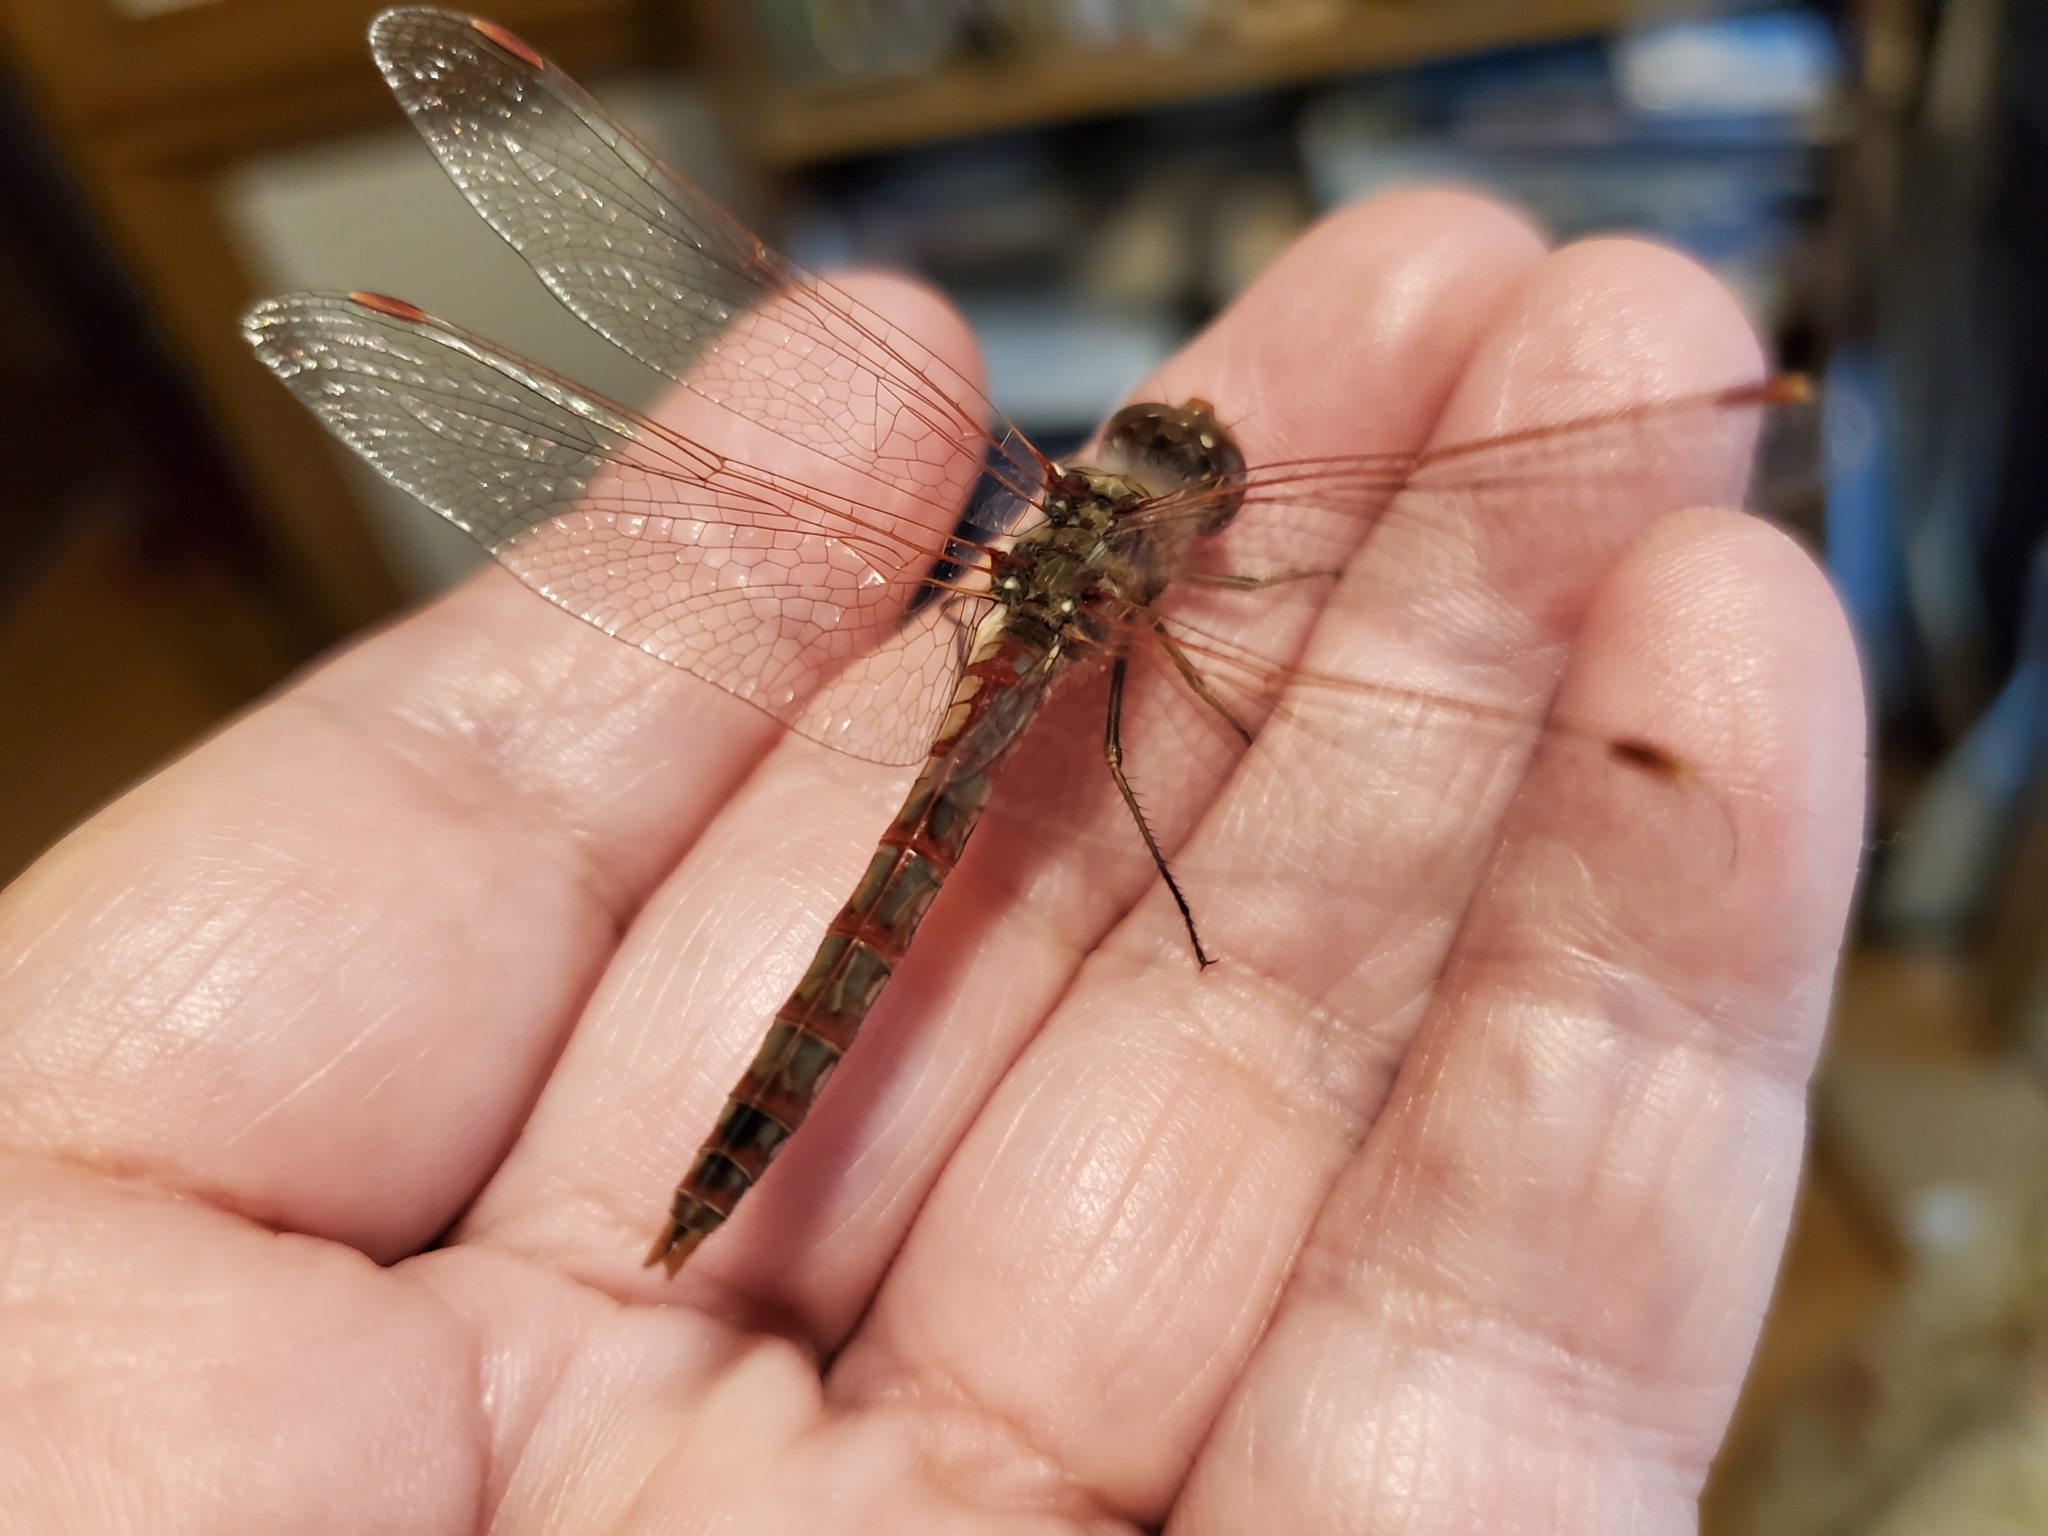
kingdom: Animalia
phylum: Arthropoda
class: Insecta
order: Odonata
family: Libellulidae
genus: Sympetrum
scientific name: Sympetrum corruptum
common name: Variegated meadowhawk
